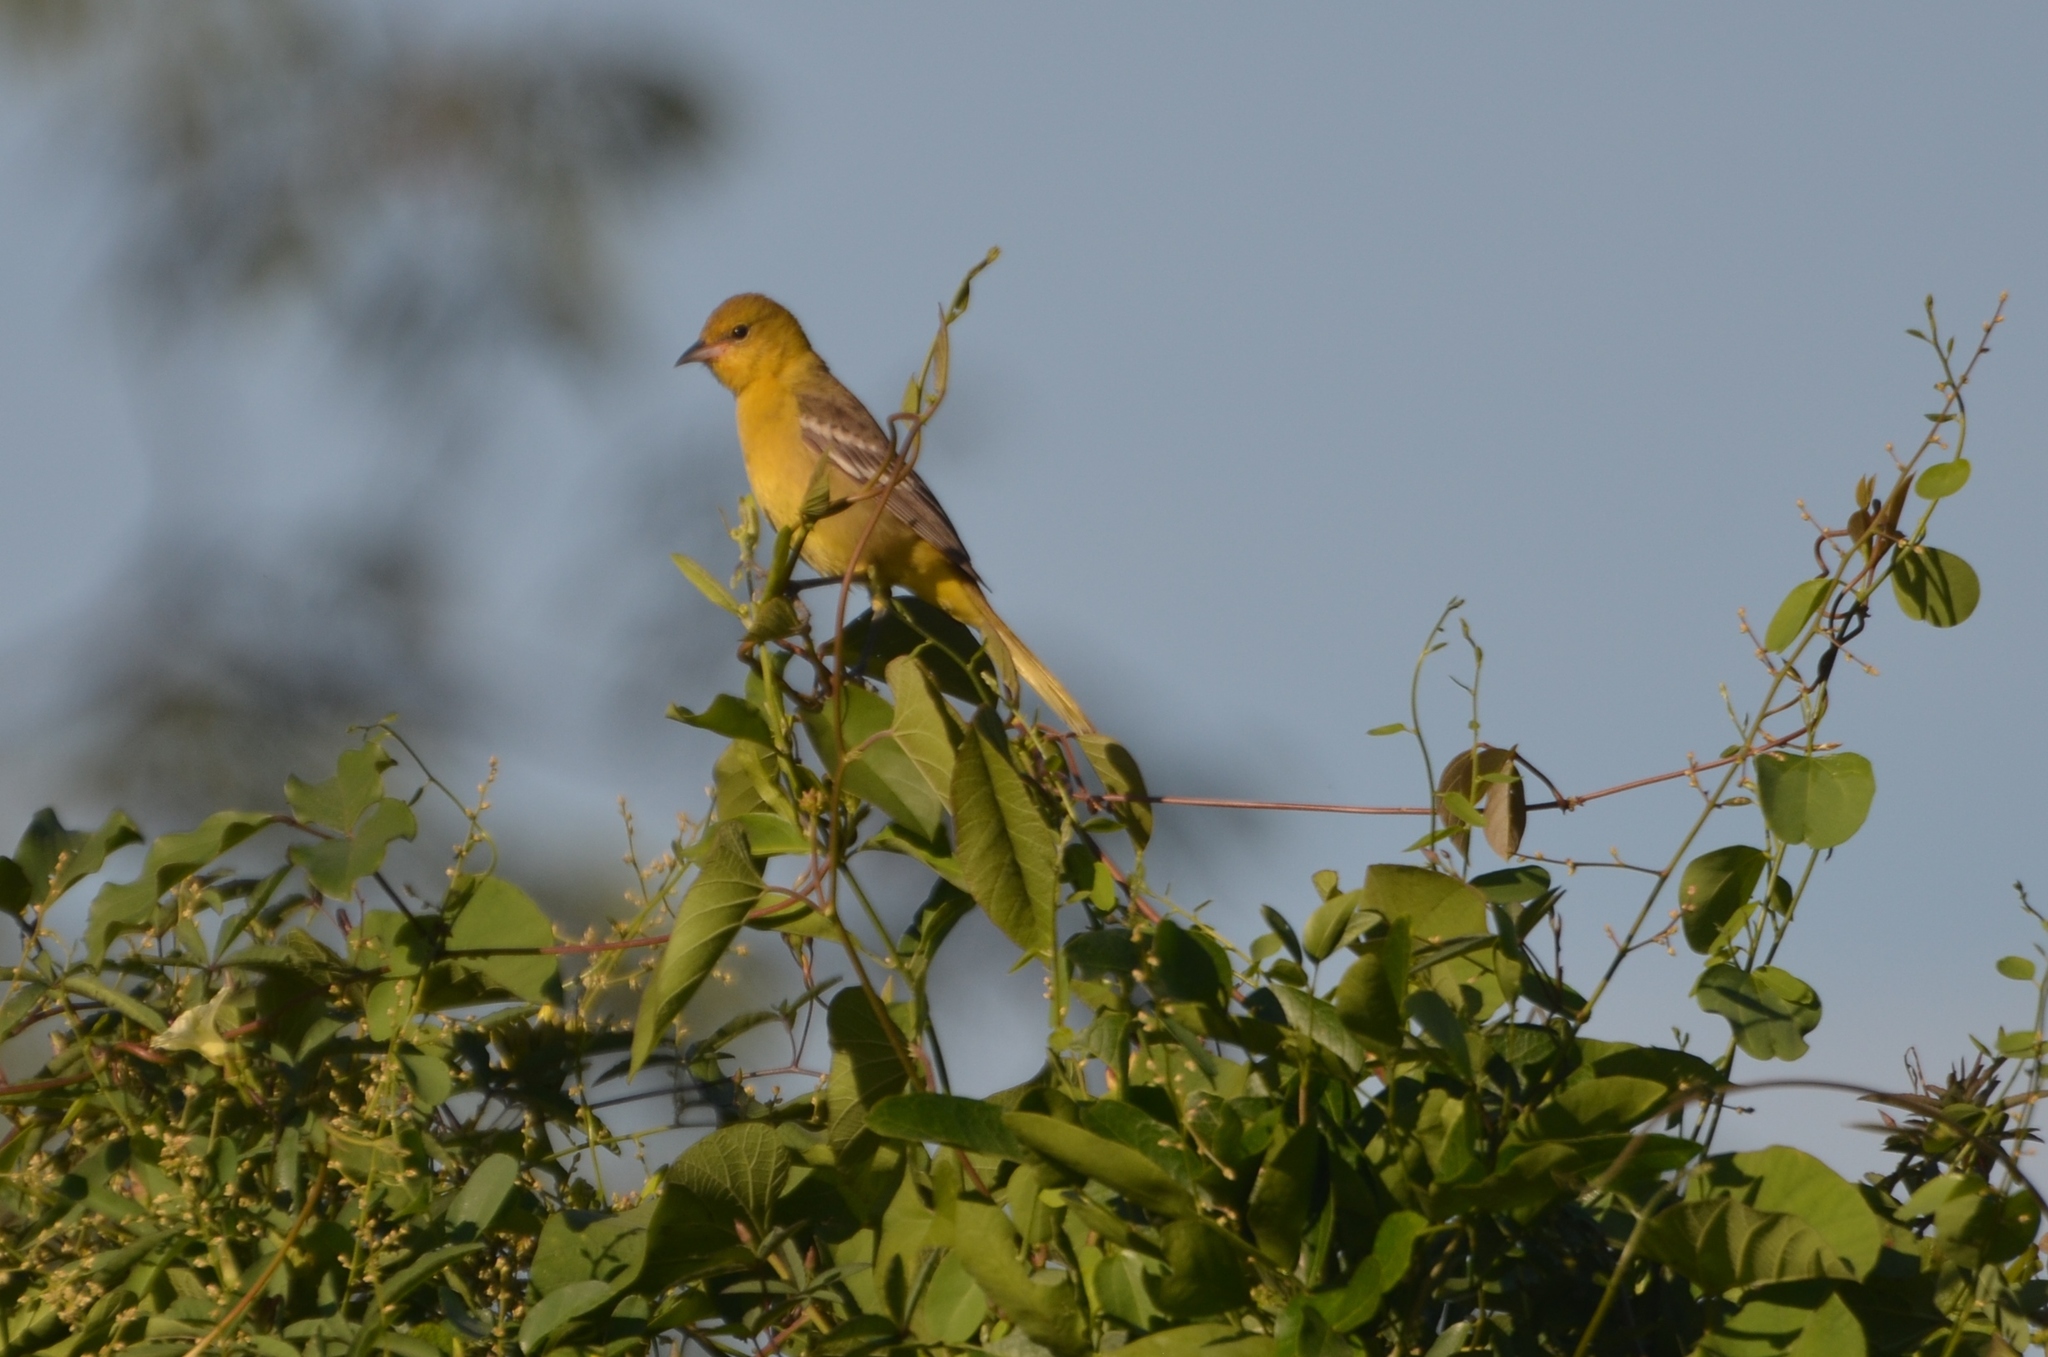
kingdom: Animalia
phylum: Chordata
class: Aves
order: Passeriformes
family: Icteridae
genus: Icterus
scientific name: Icterus spurius
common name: Orchard oriole
